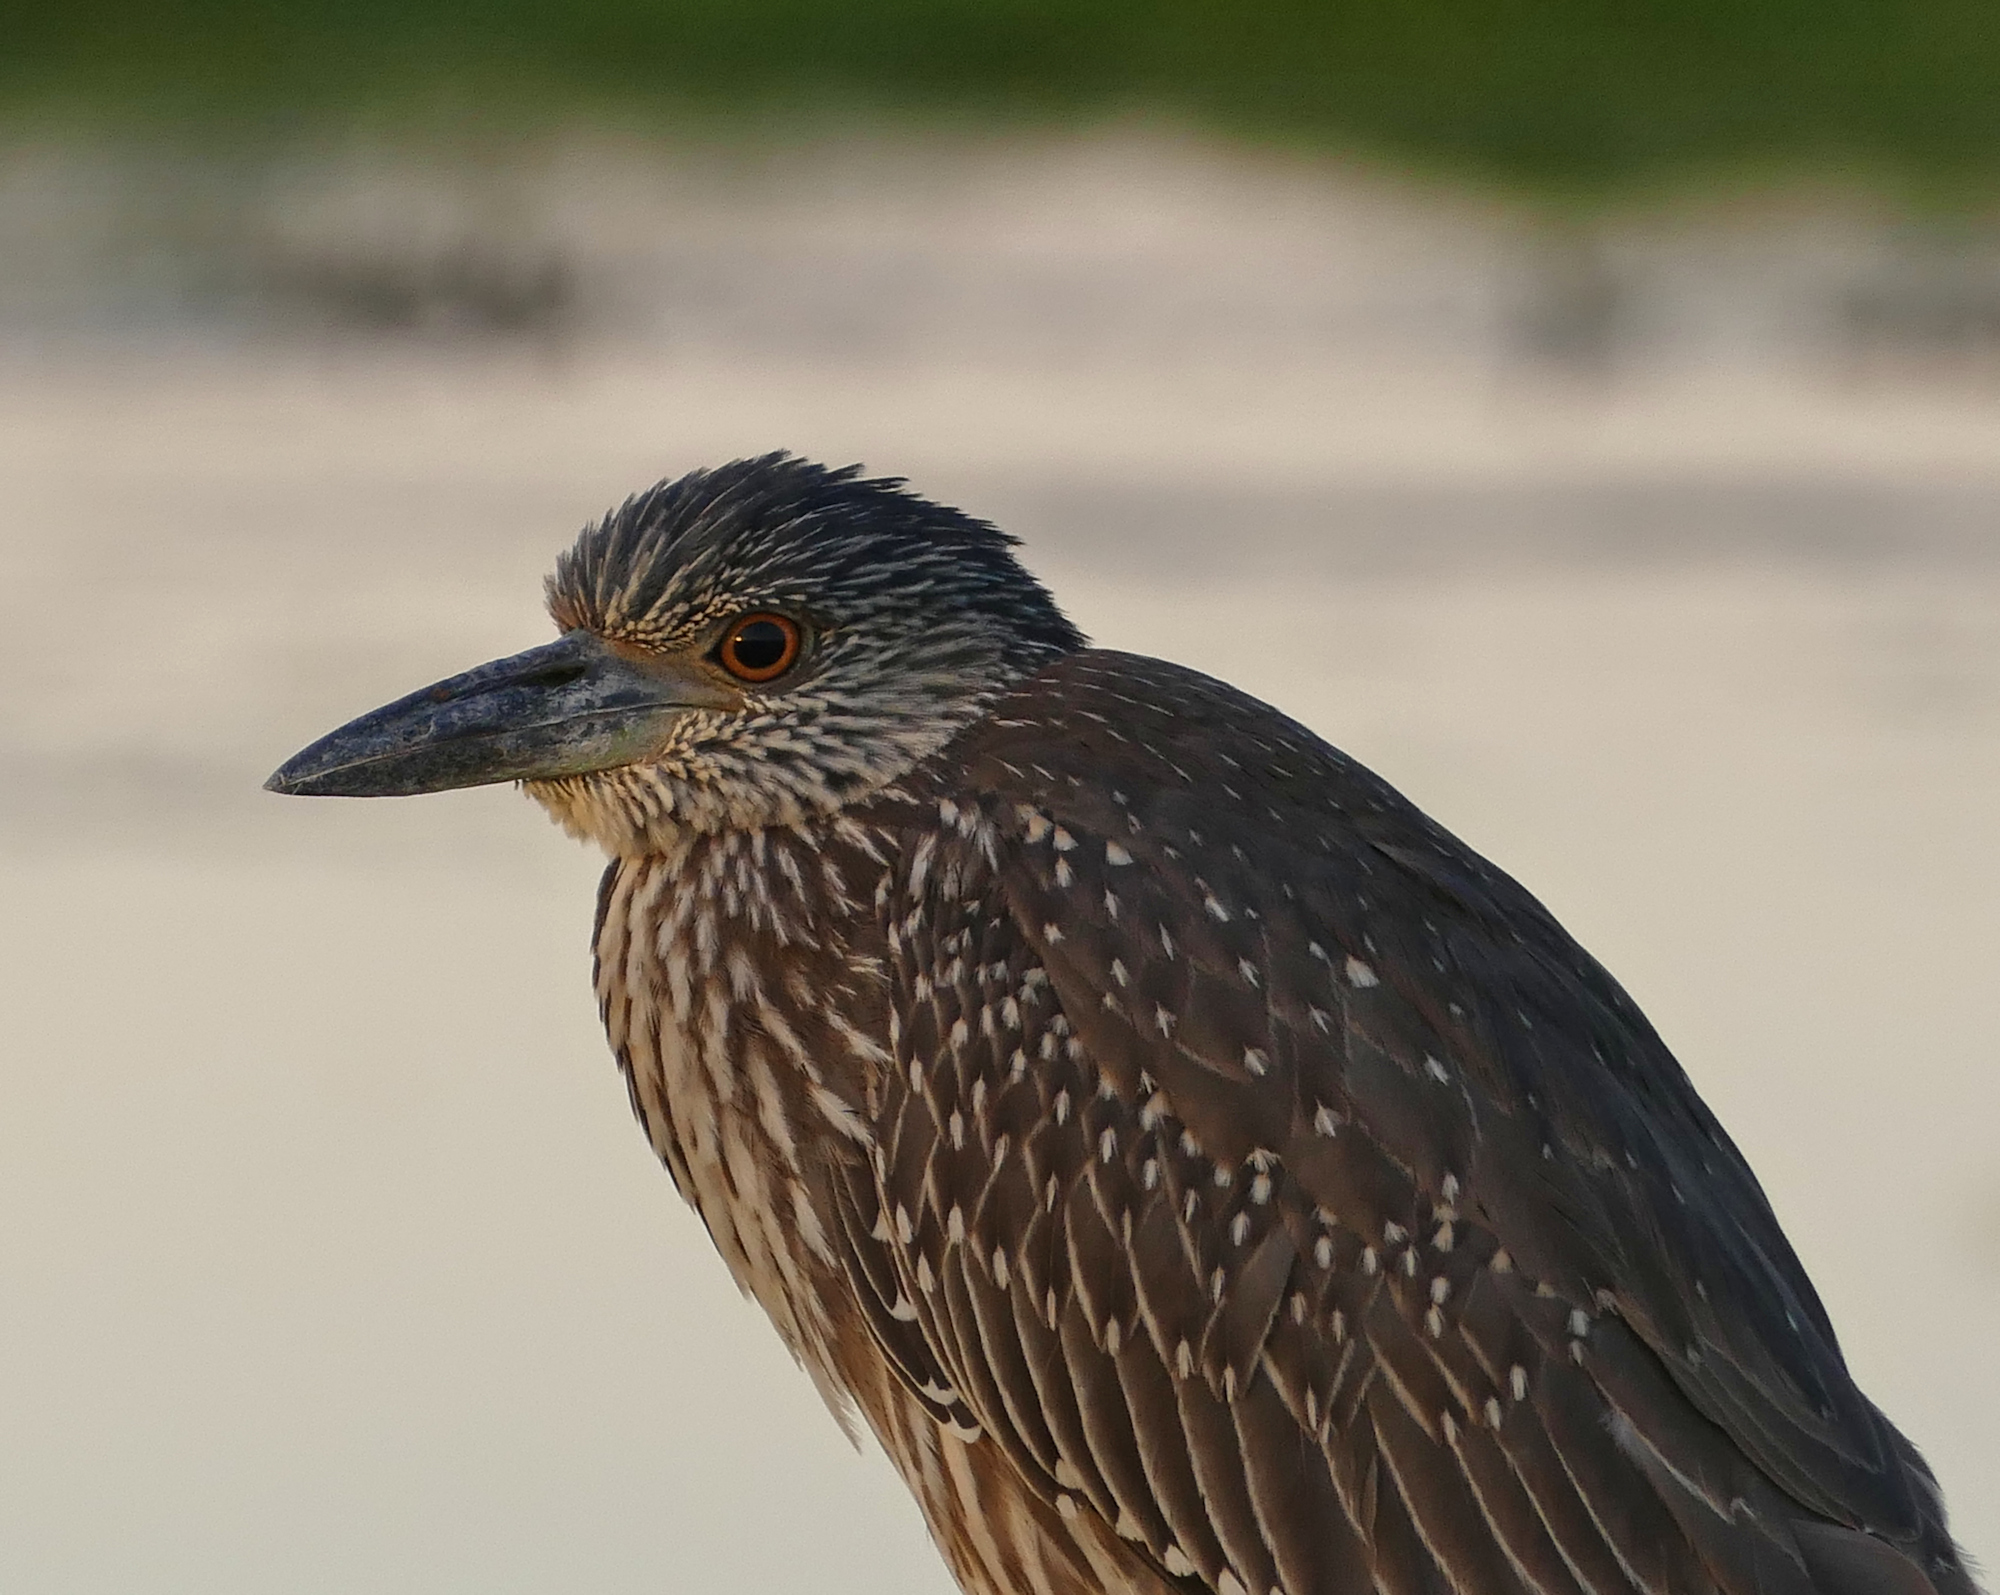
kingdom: Animalia
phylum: Chordata
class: Aves
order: Pelecaniformes
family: Ardeidae
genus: Nyctanassa
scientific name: Nyctanassa violacea
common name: Yellow-crowned night heron
